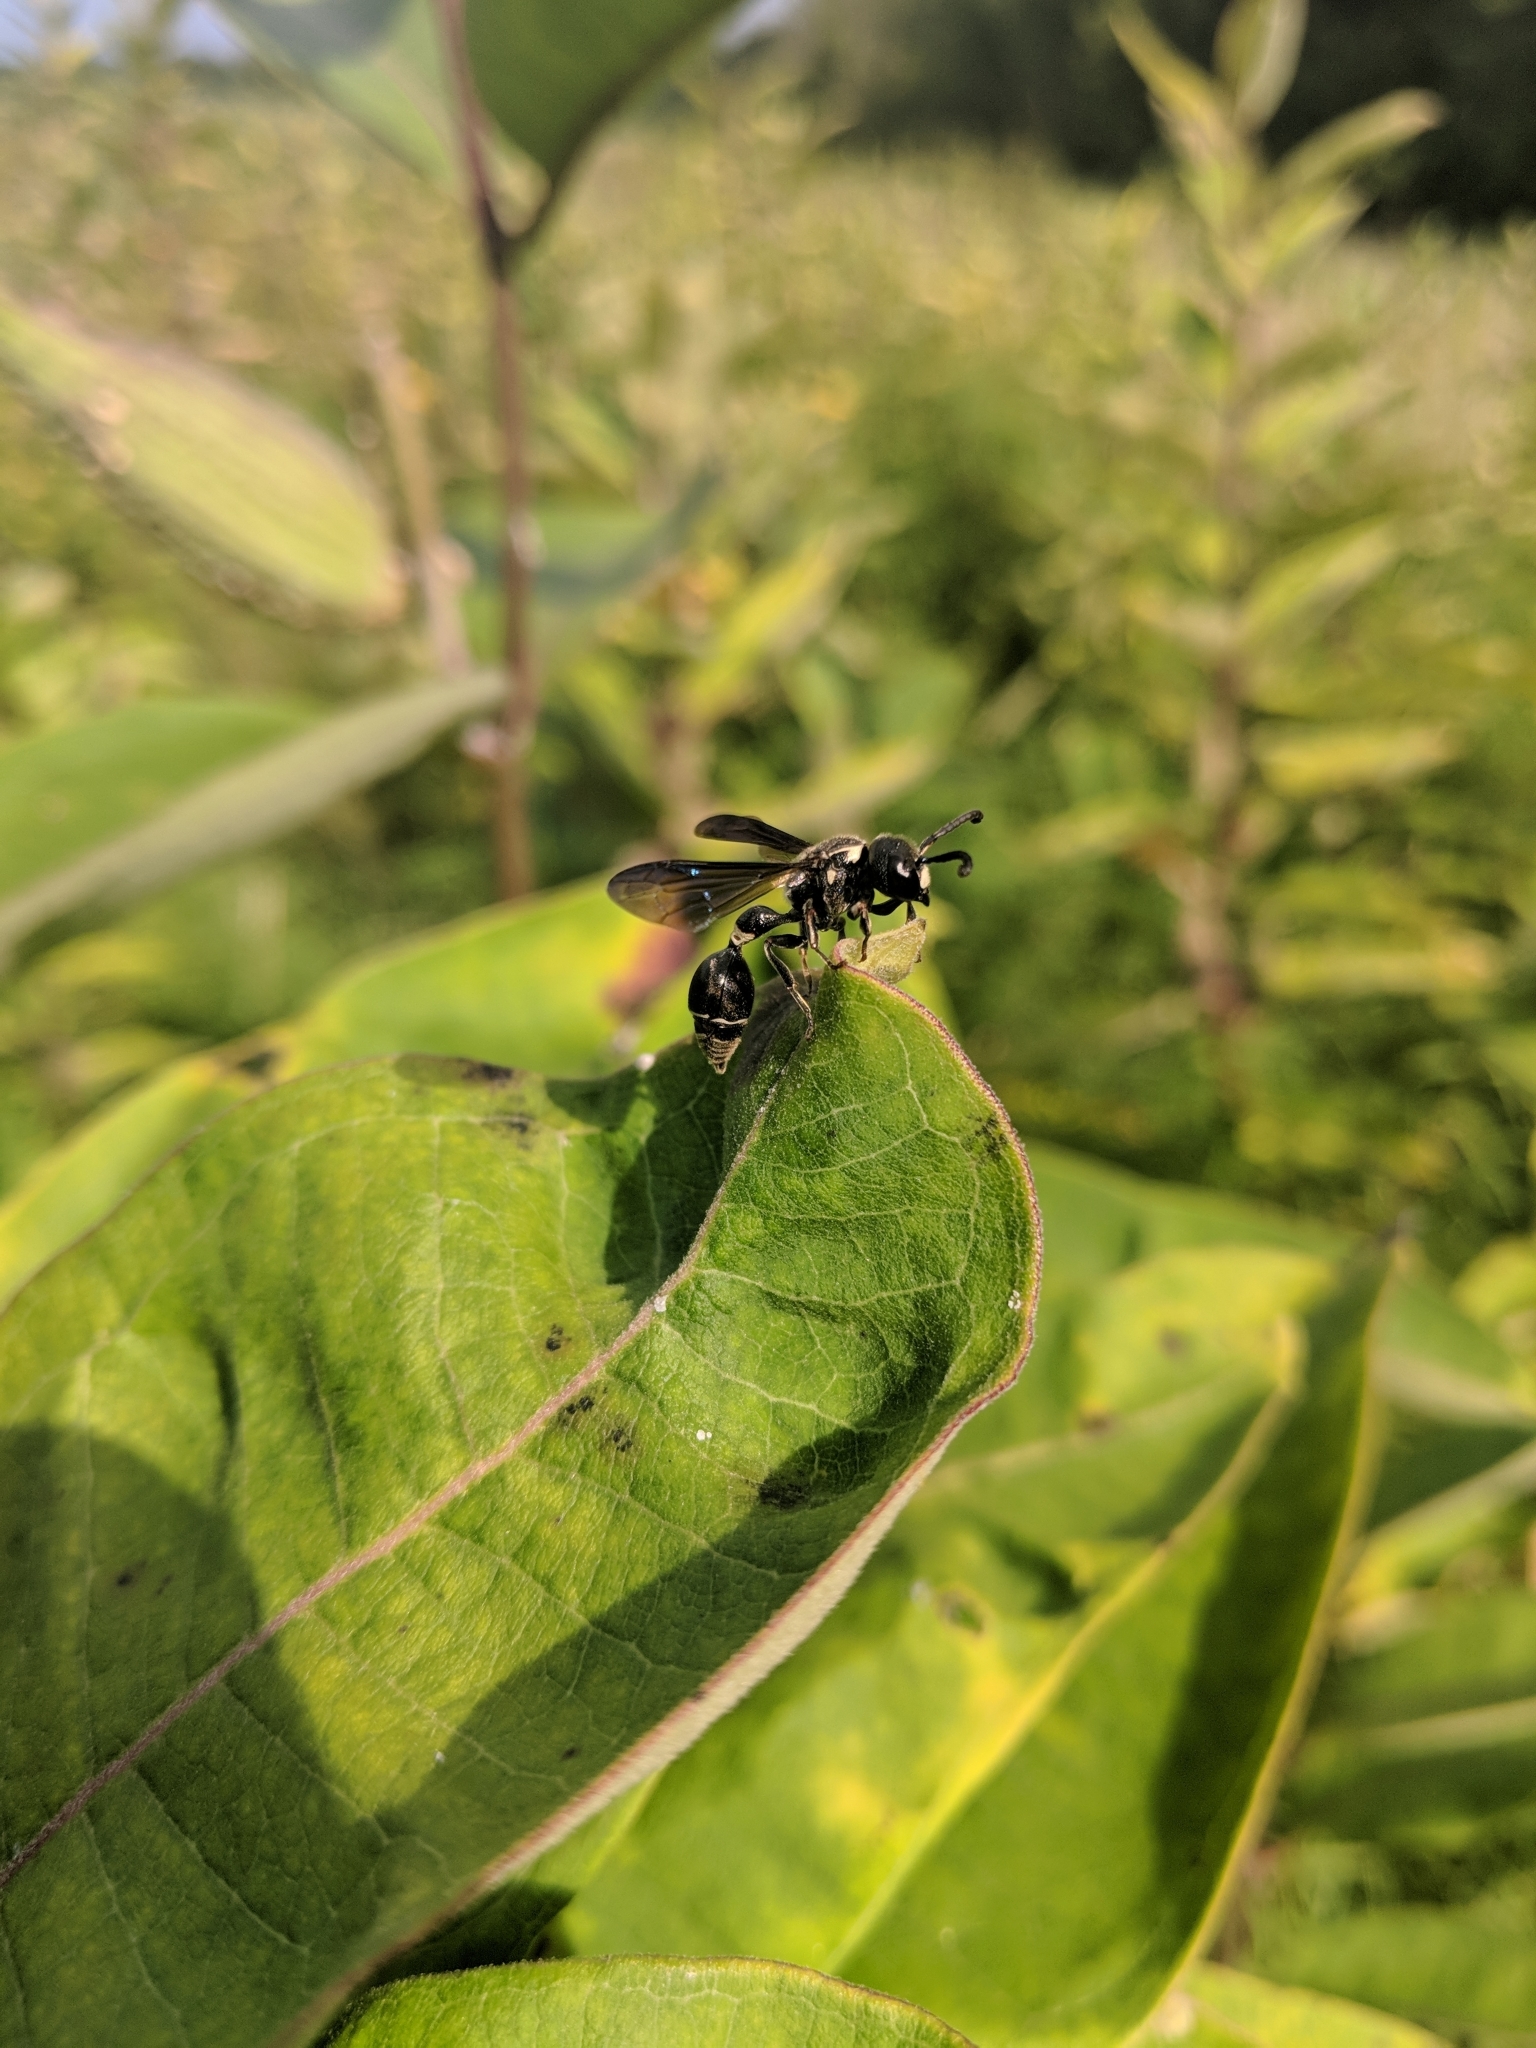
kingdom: Animalia
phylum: Arthropoda
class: Insecta
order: Hymenoptera
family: Eumenidae
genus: Zethus
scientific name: Zethus spinipes
